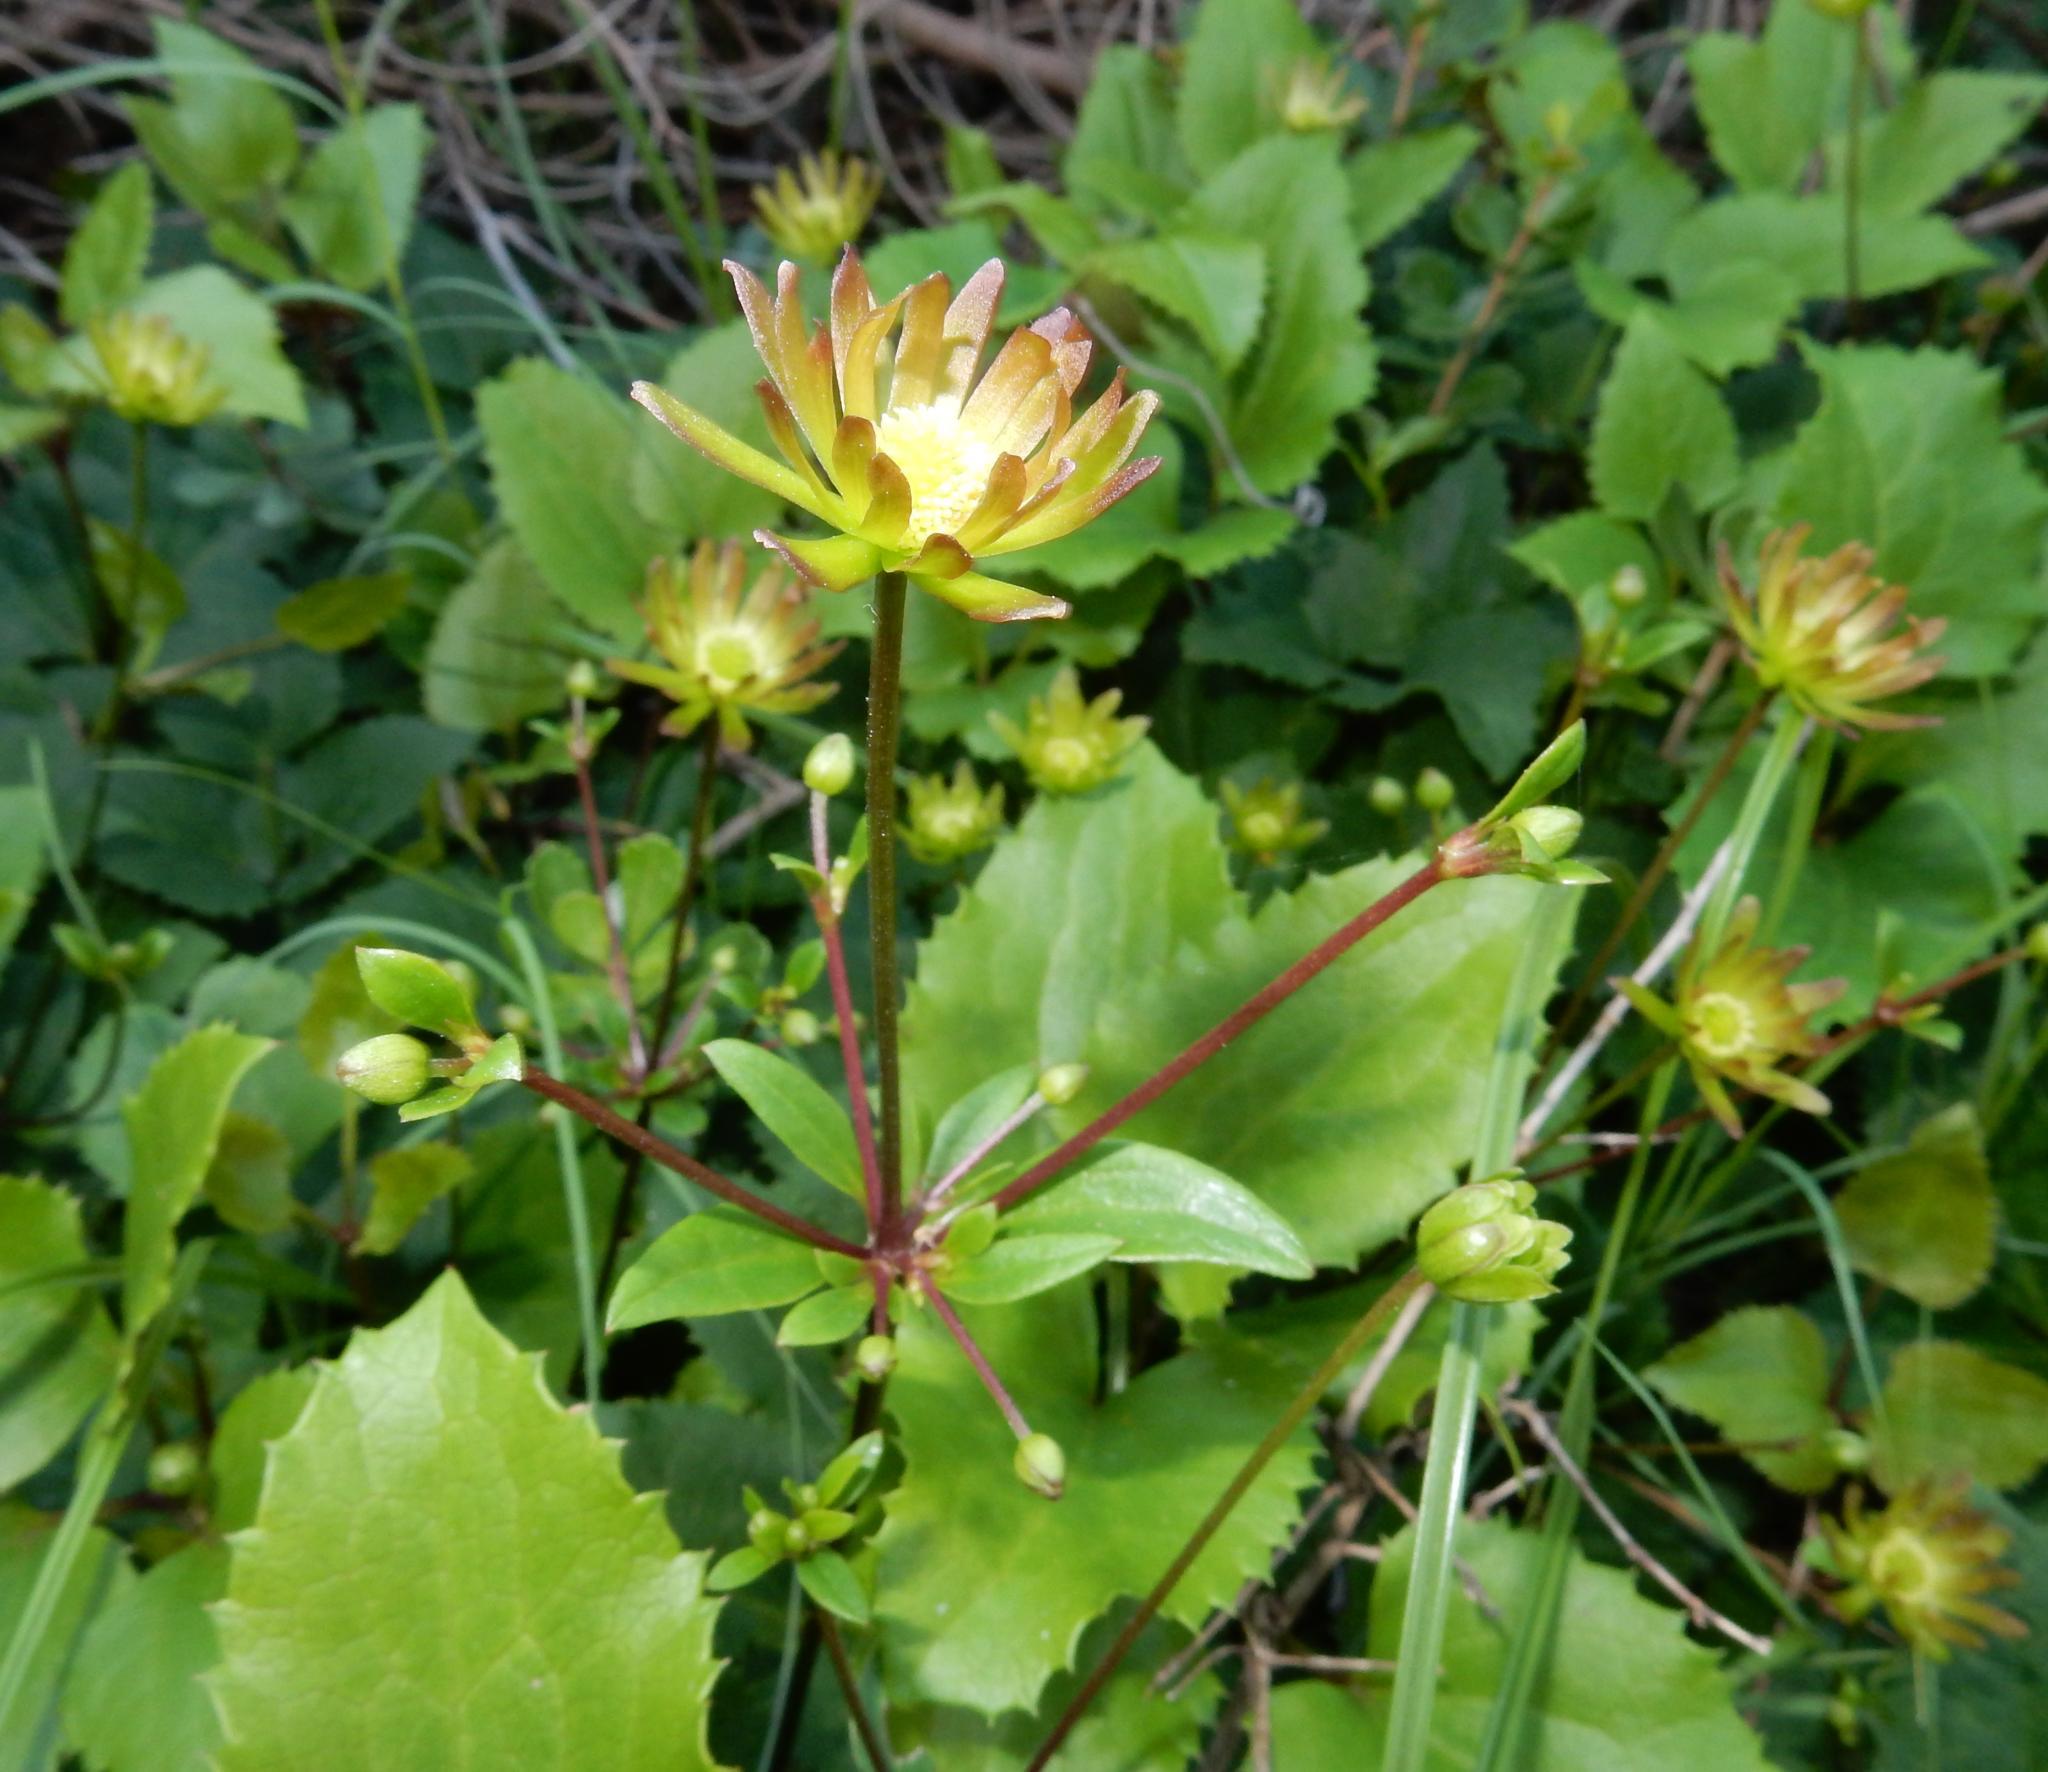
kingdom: Plantae
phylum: Tracheophyta
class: Magnoliopsida
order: Ranunculales
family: Ranunculaceae
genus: Knowltonia
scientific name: Knowltonia vesicatoria
